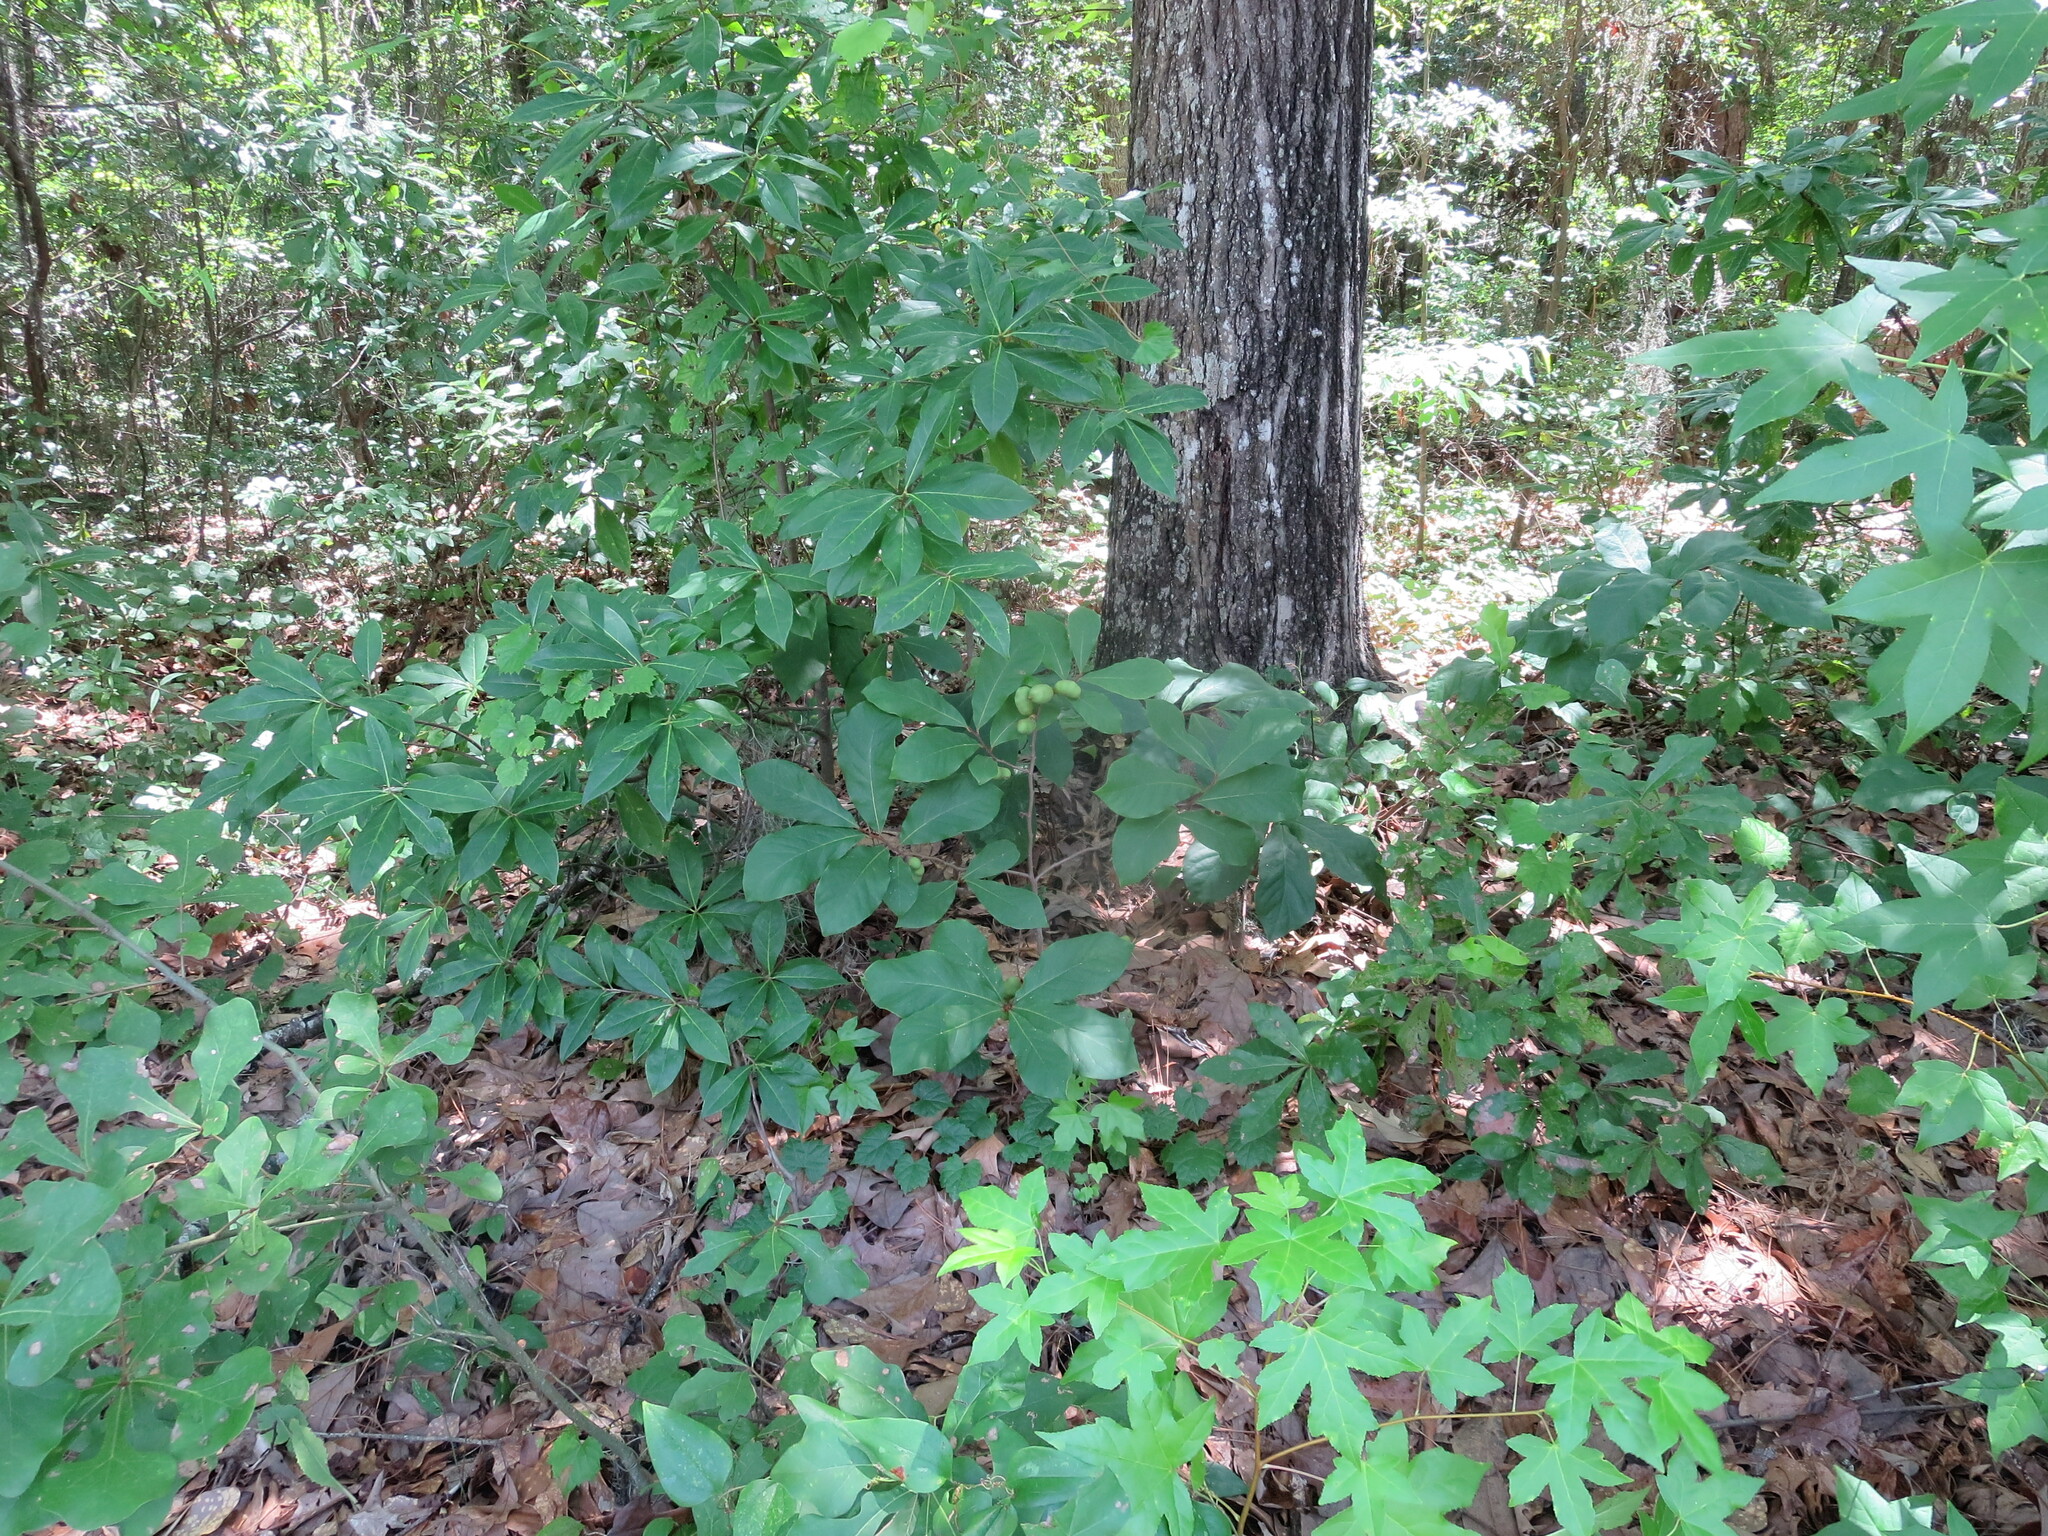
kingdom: Plantae
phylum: Tracheophyta
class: Magnoliopsida
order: Magnoliales
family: Annonaceae
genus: Asimina
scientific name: Asimina parviflora
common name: Dwarf pawpaw
